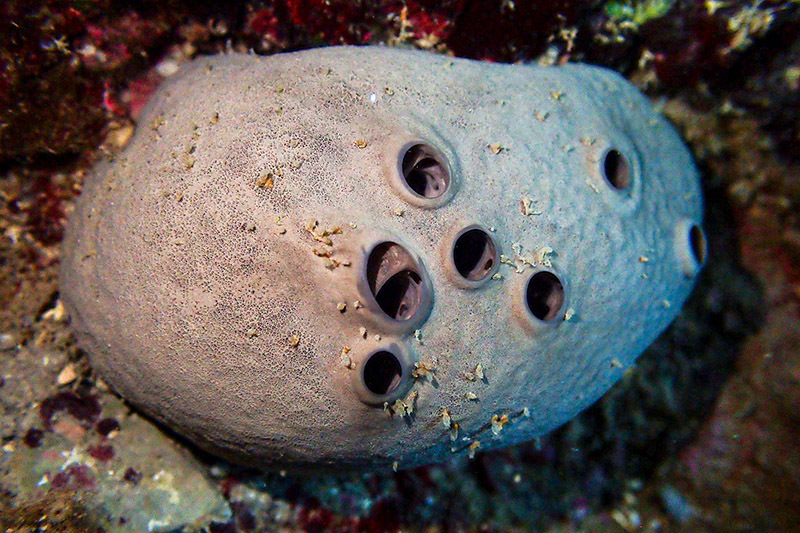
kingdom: Animalia
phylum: Porifera
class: Demospongiae
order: Dictyoceratida
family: Irciniidae
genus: Ircinia
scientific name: Ircinia oros
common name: Grey leather sponge
